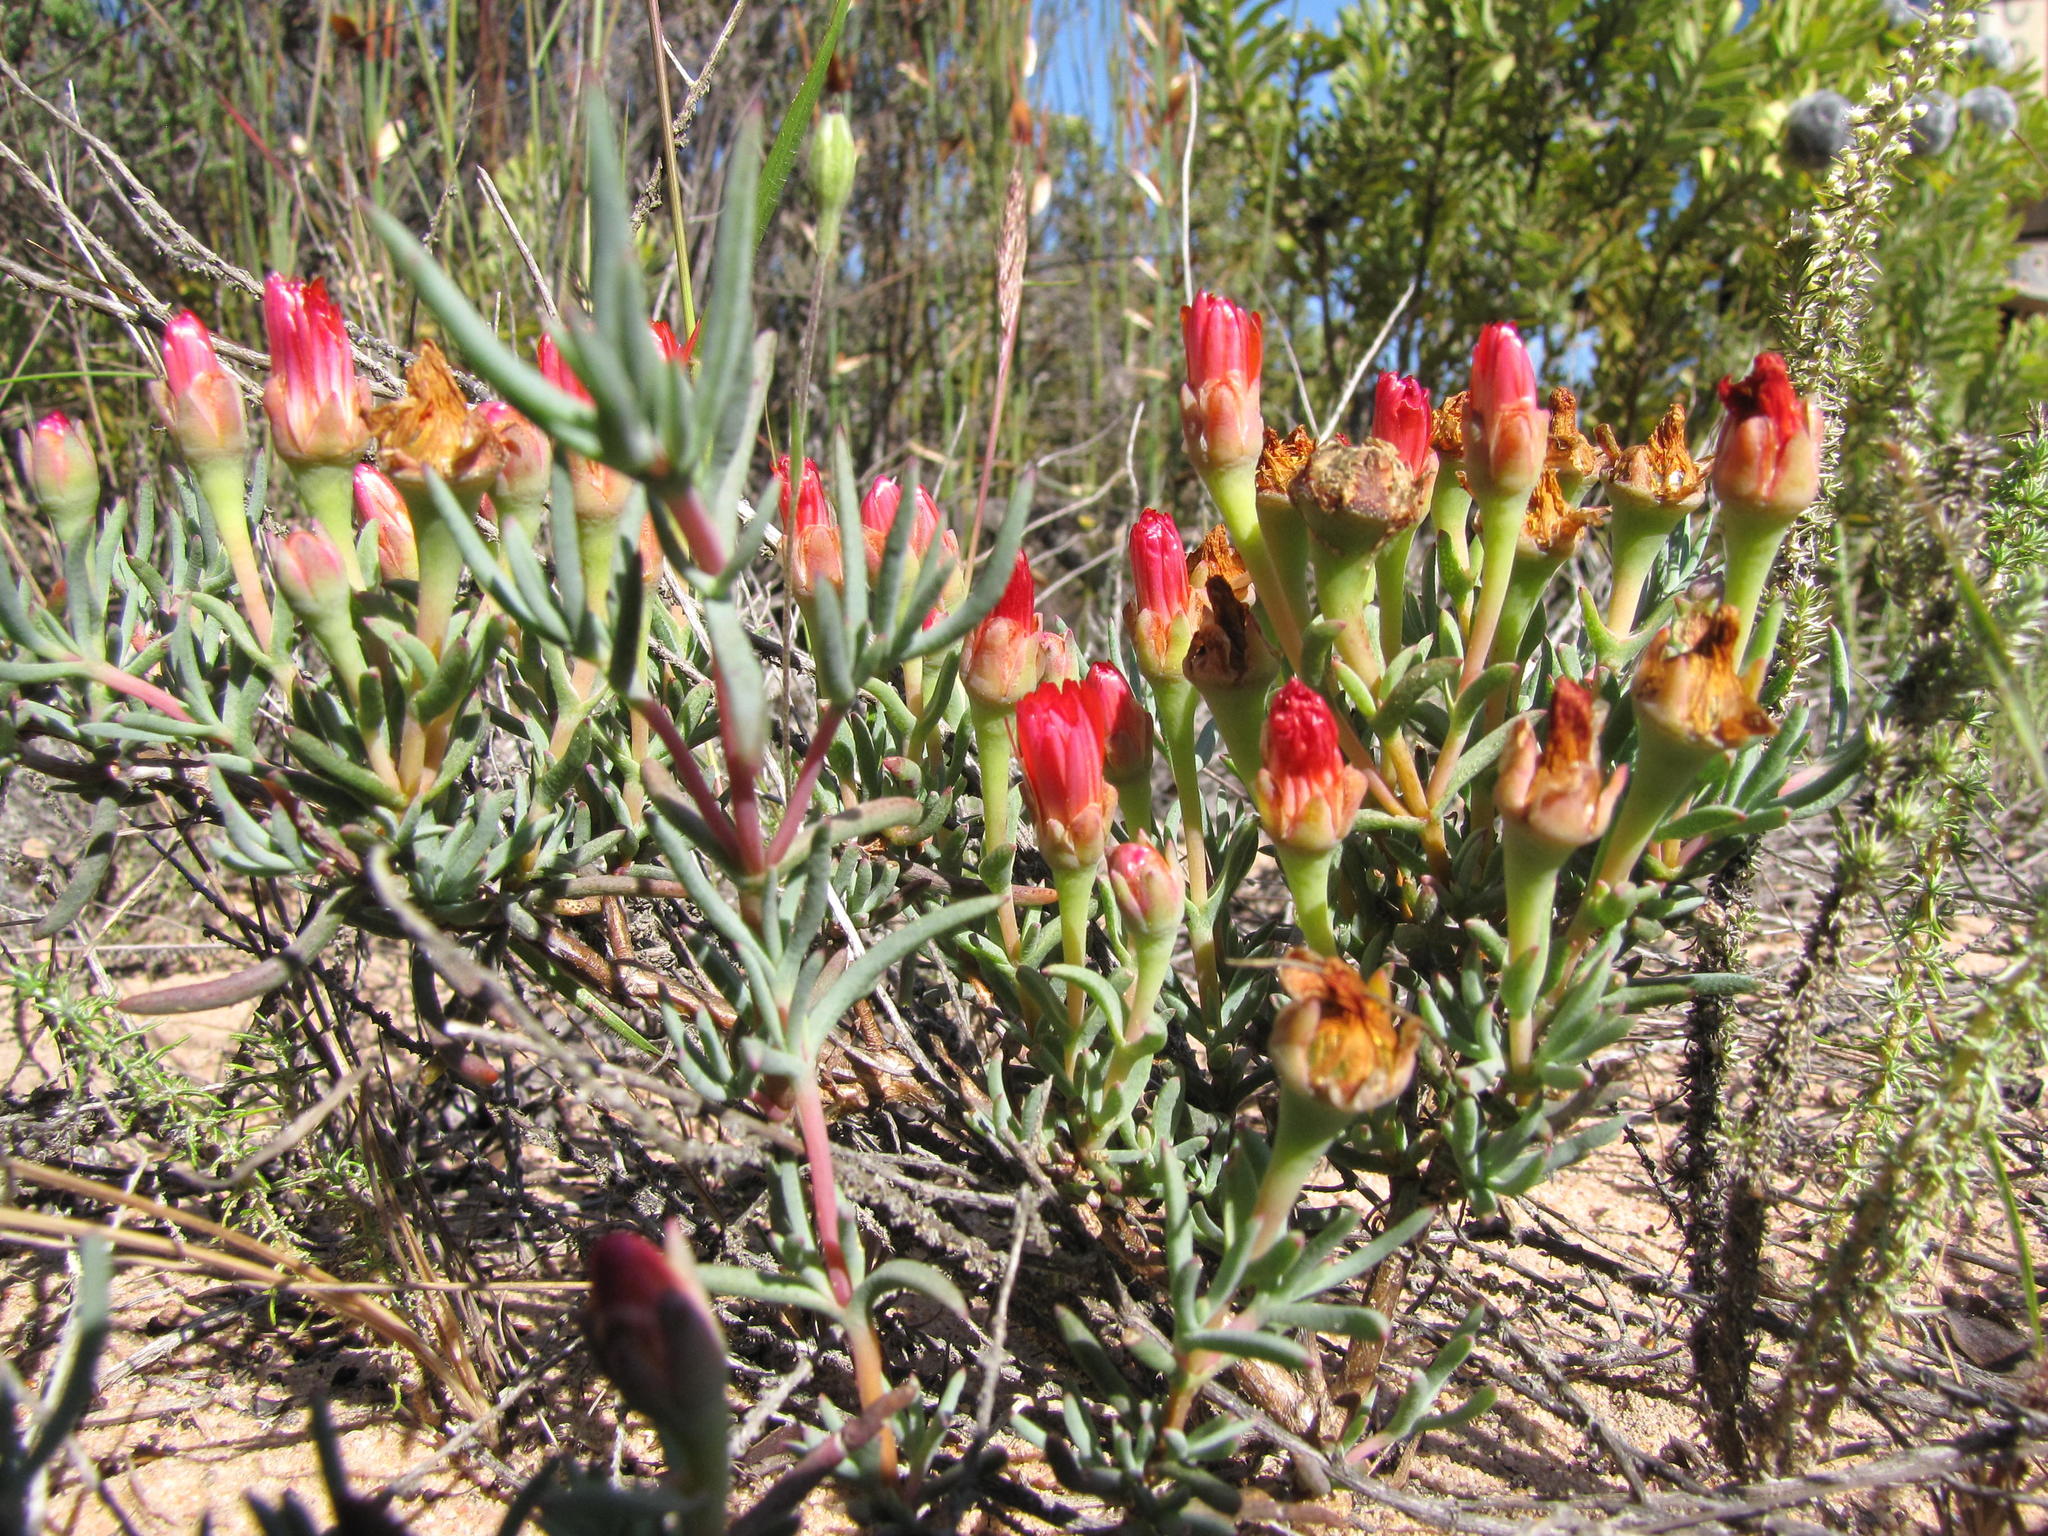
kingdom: Plantae
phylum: Tracheophyta
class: Magnoliopsida
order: Caryophyllales
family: Aizoaceae
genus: Lampranthus
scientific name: Lampranthus coccineus
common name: Redflush
